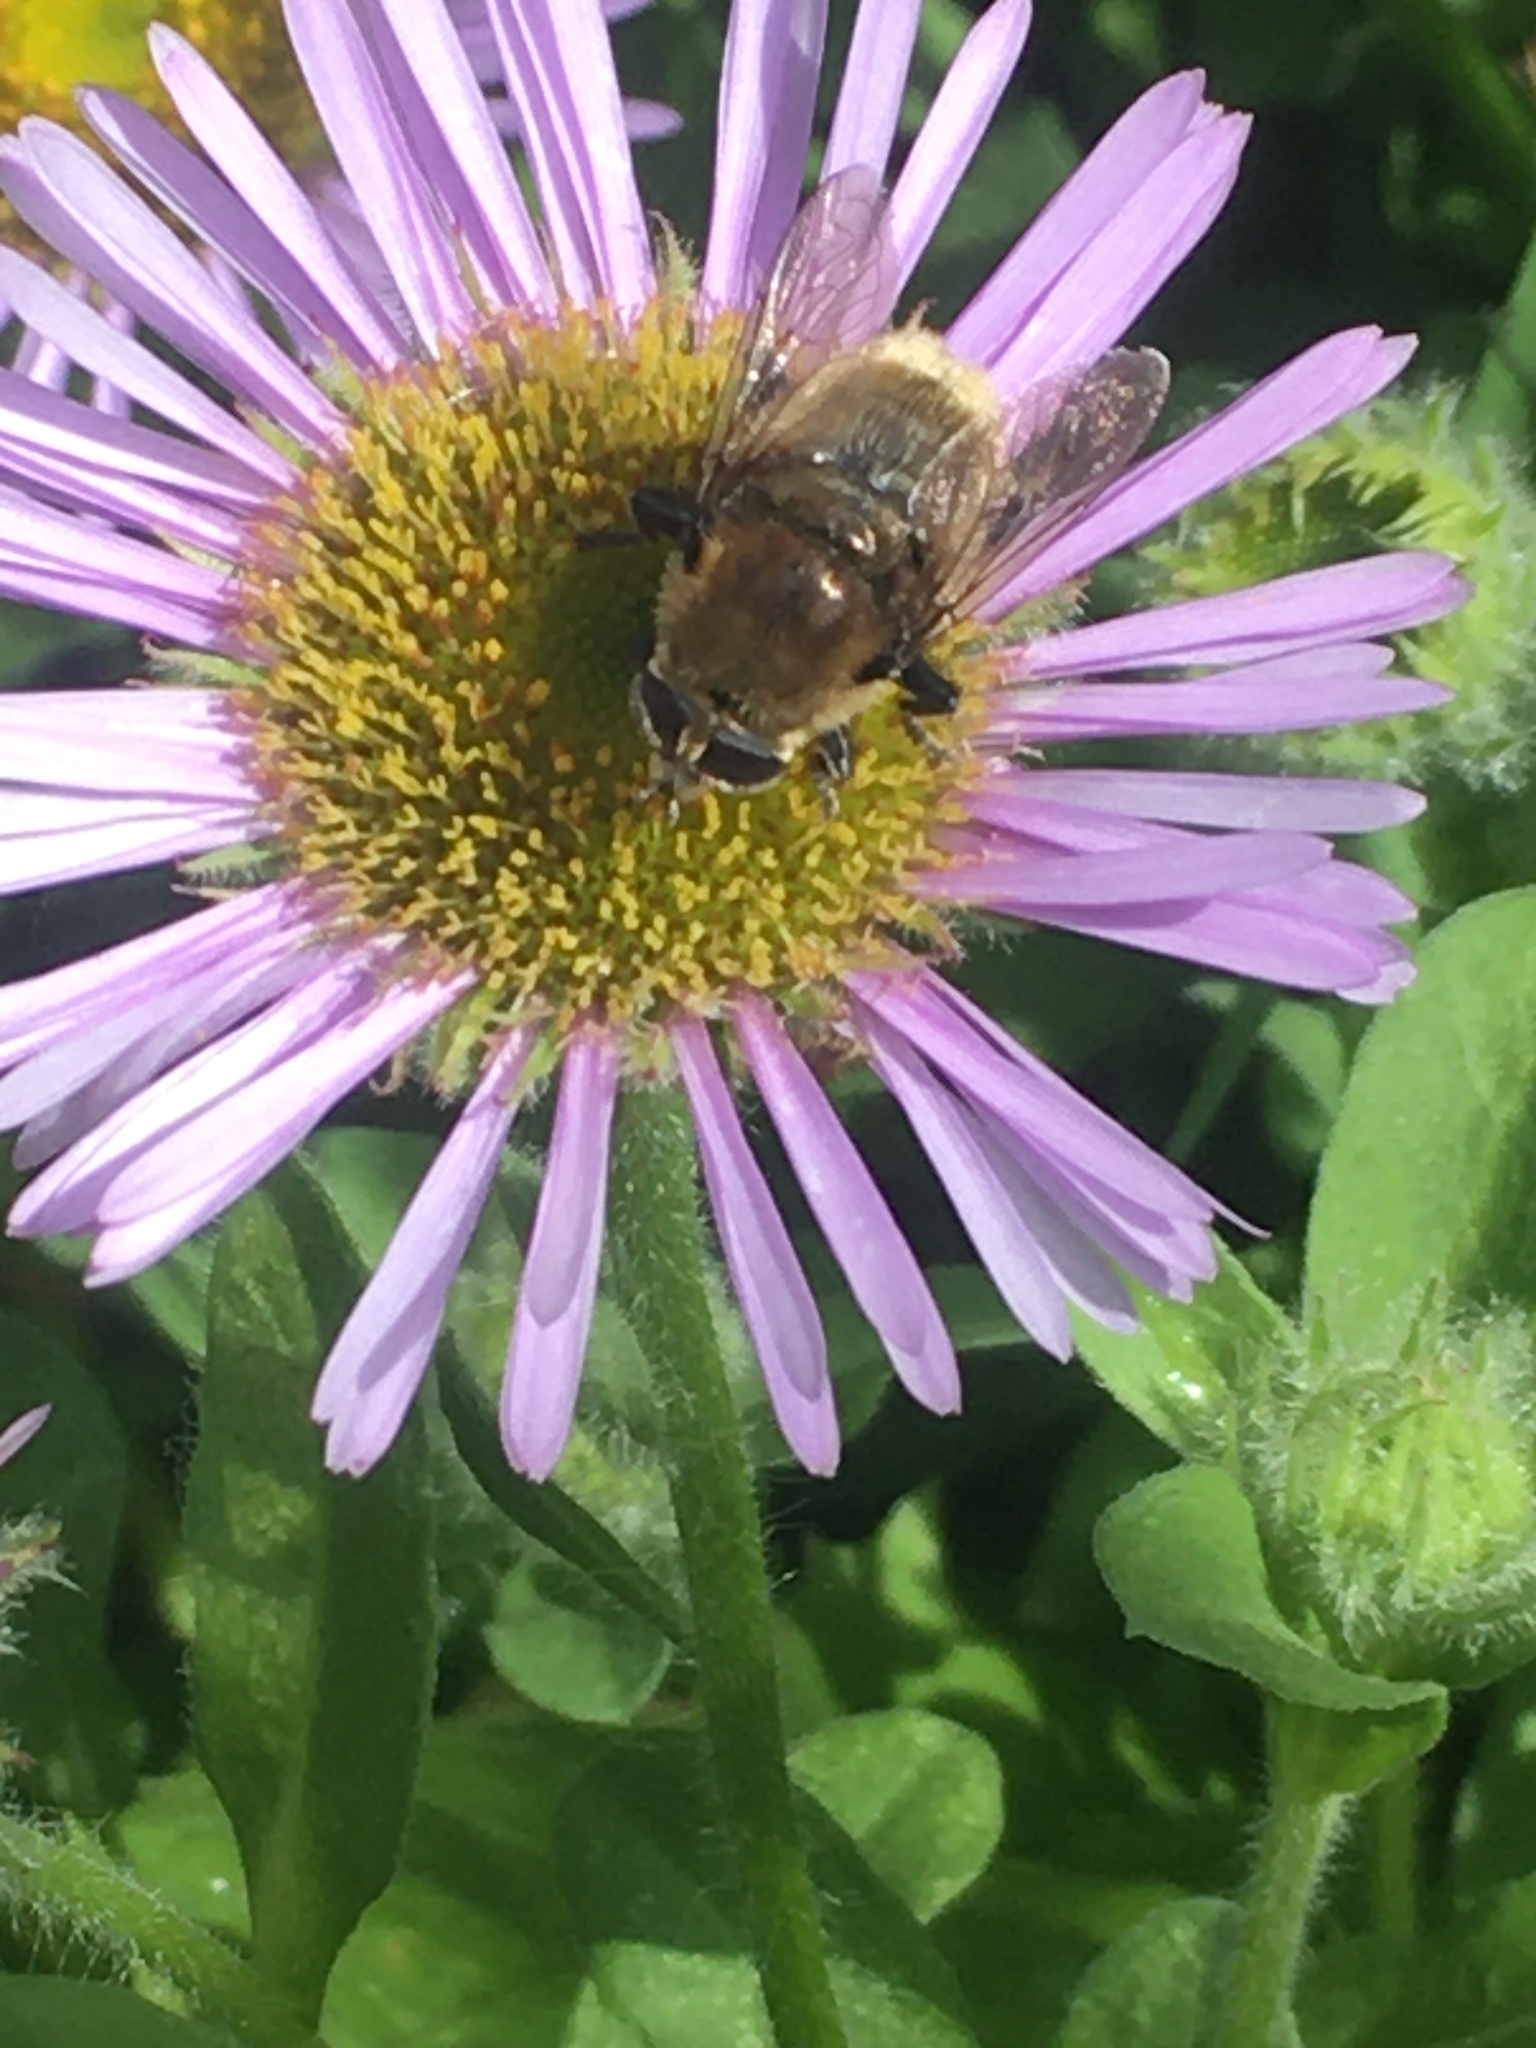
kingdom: Animalia
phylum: Arthropoda
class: Insecta
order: Diptera
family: Syrphidae
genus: Merodon
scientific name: Merodon equestris
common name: Greater bulb-fly
